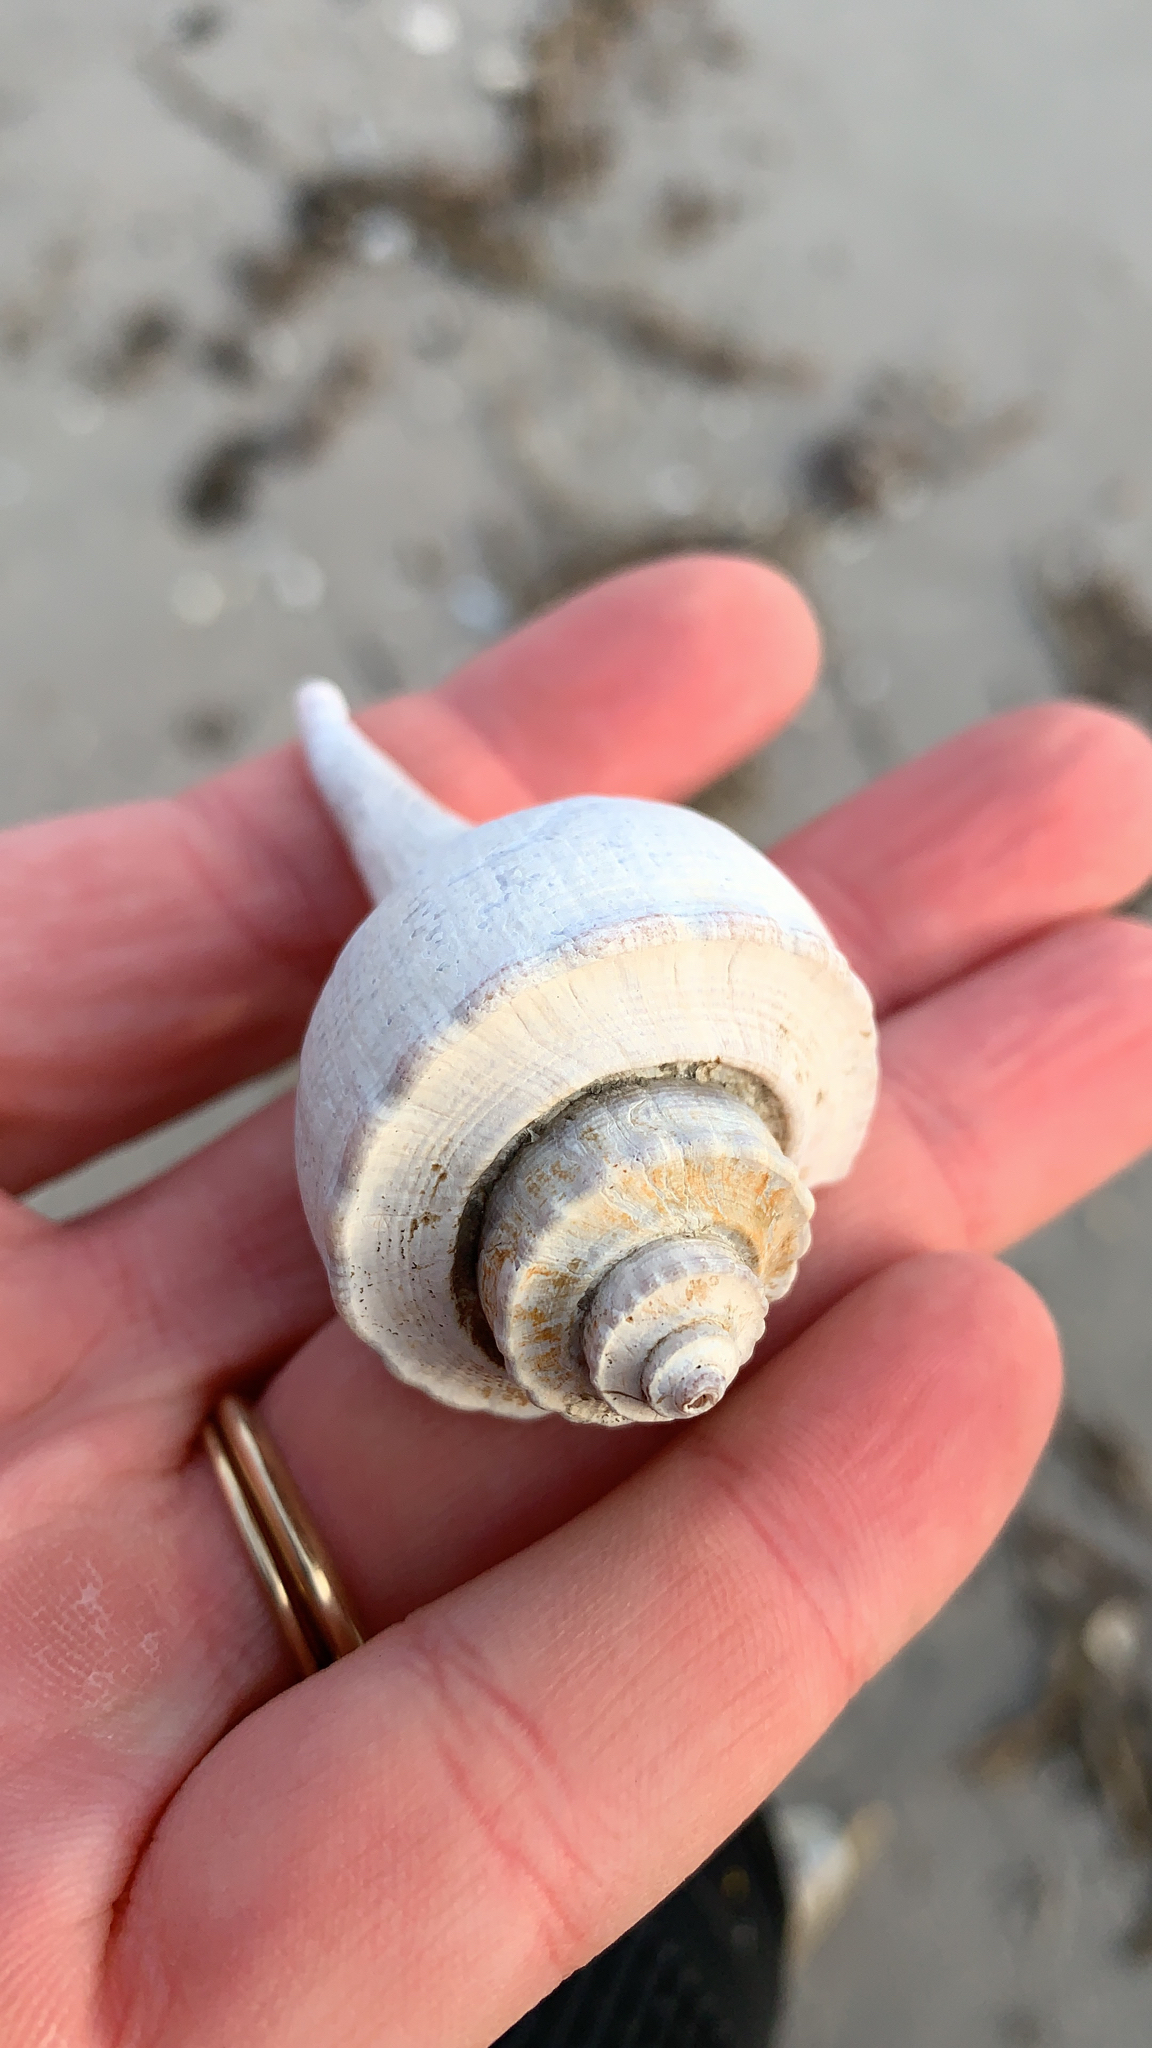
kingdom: Animalia
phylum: Mollusca
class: Gastropoda
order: Neogastropoda
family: Busyconidae
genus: Busycotypus
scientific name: Busycotypus canaliculatus
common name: Channeled whelk
